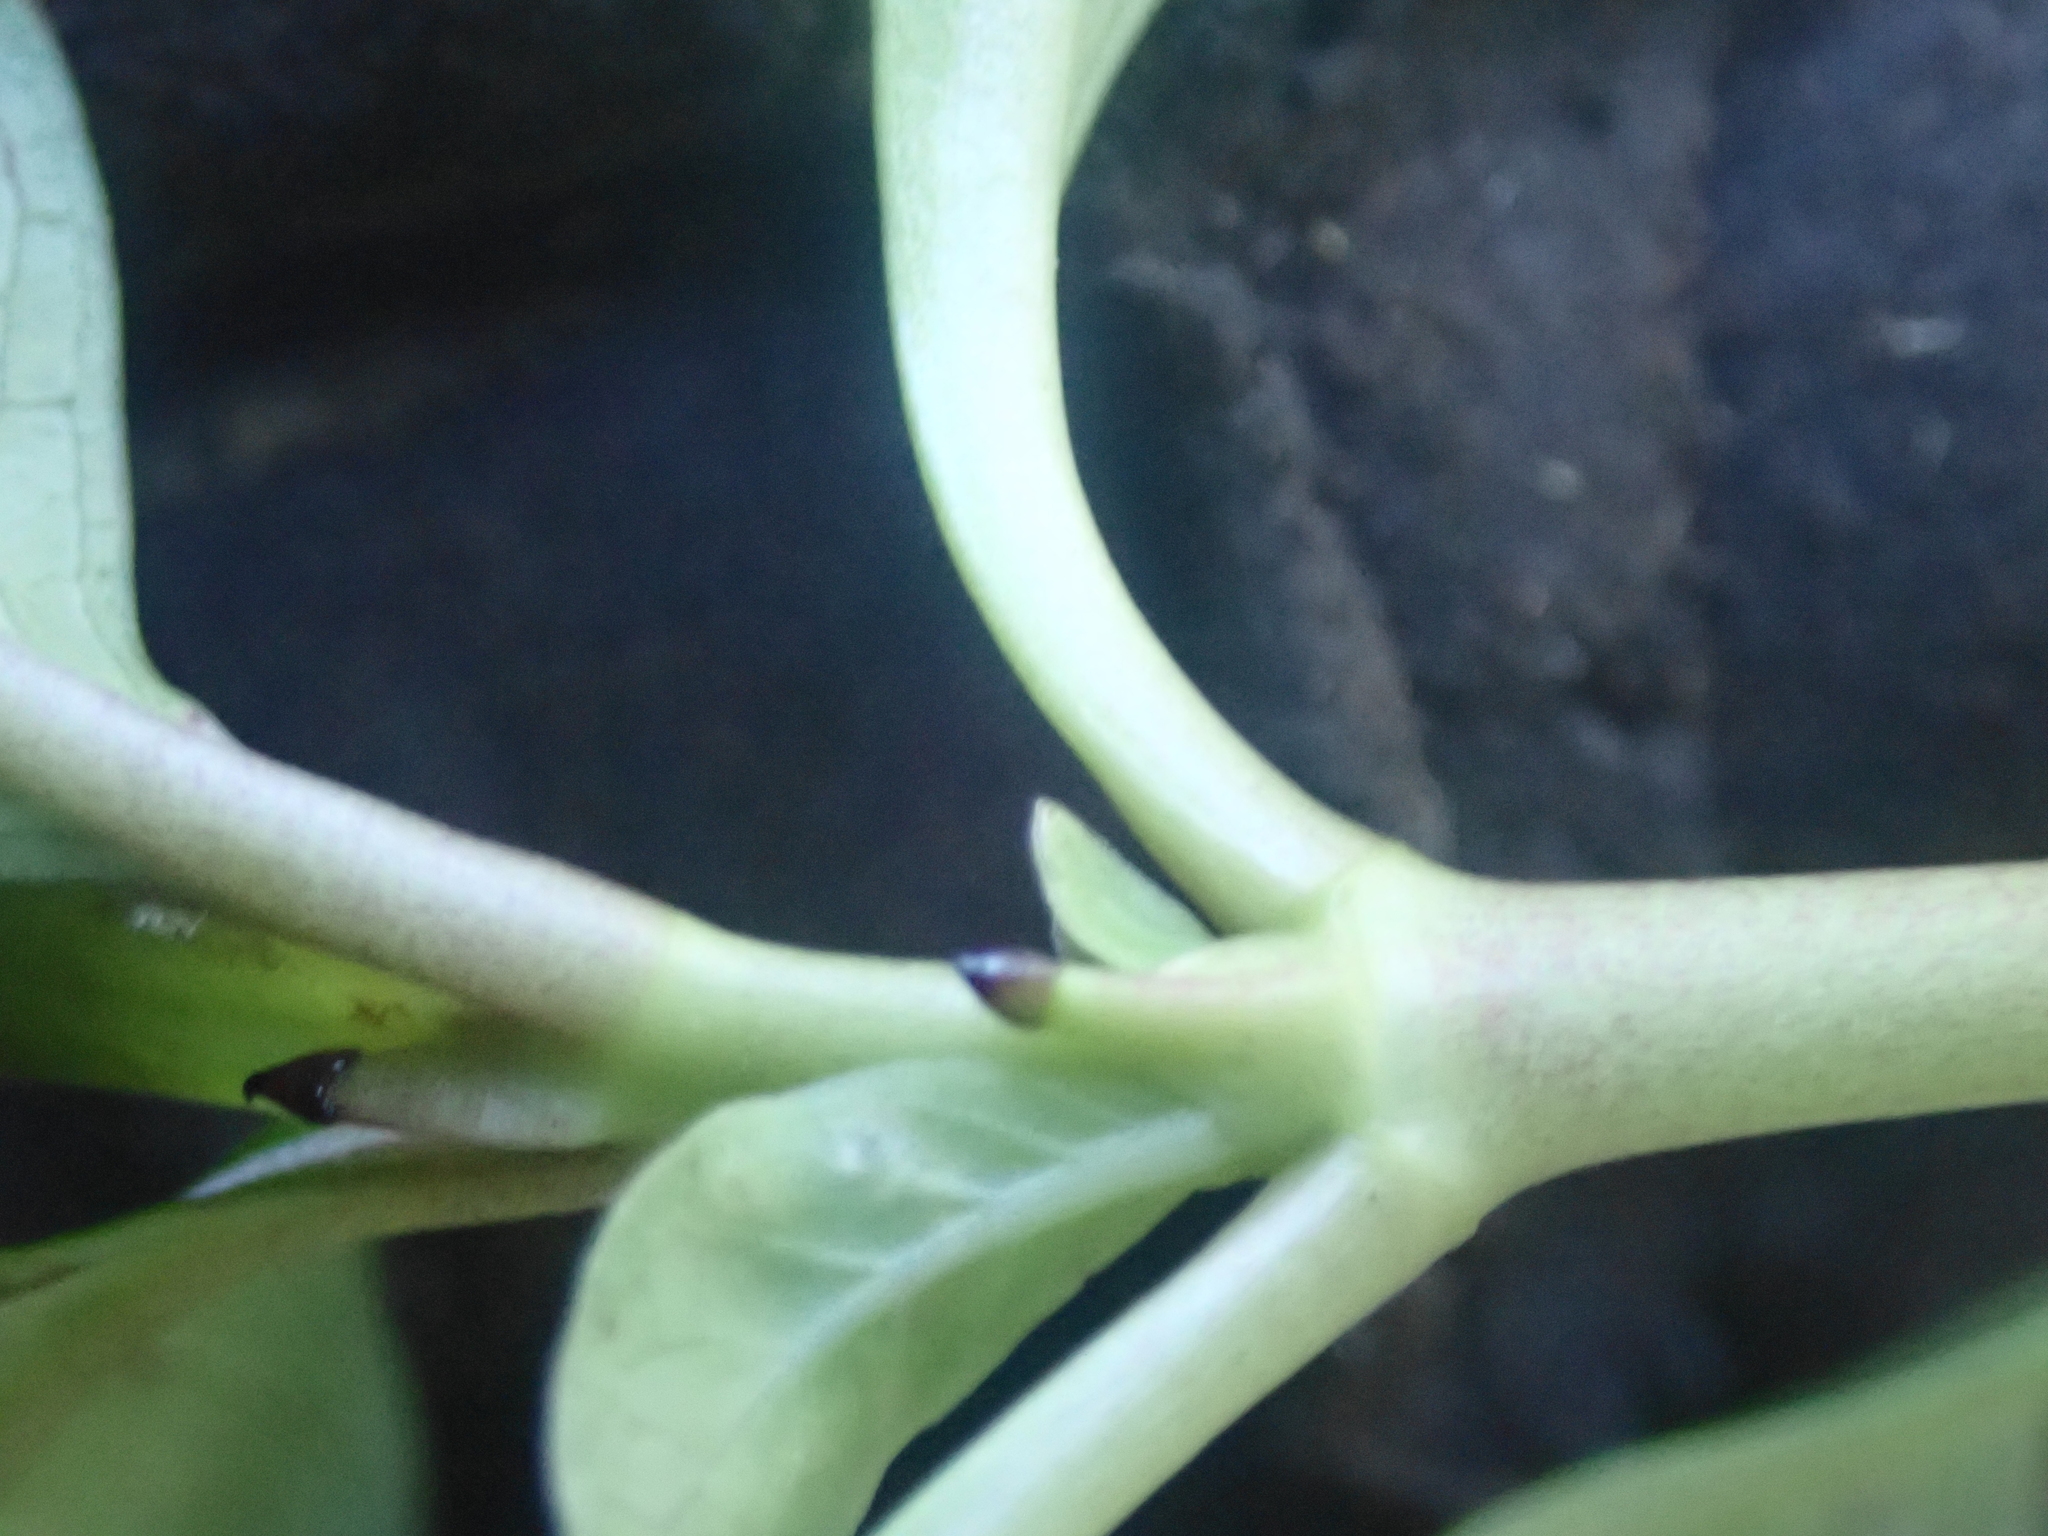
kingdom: Plantae
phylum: Tracheophyta
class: Magnoliopsida
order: Gentianales
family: Rubiaceae
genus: Coprosma
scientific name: Coprosma robusta
